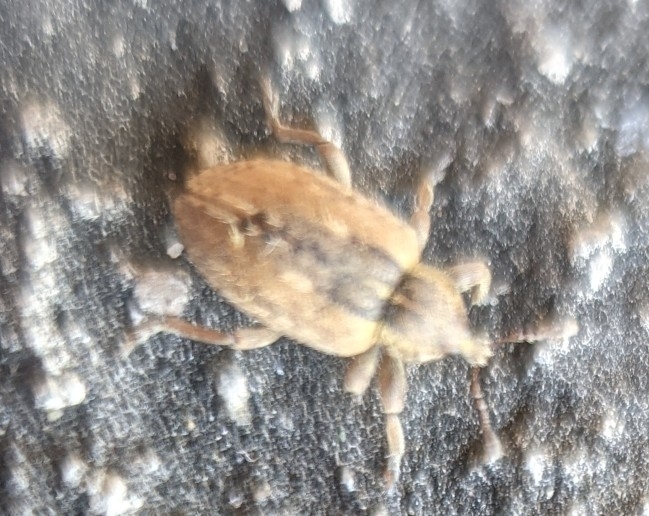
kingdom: Animalia
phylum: Arthropoda
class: Insecta
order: Coleoptera
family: Curculionidae
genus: Hypera
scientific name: Hypera postica
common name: Weevil
